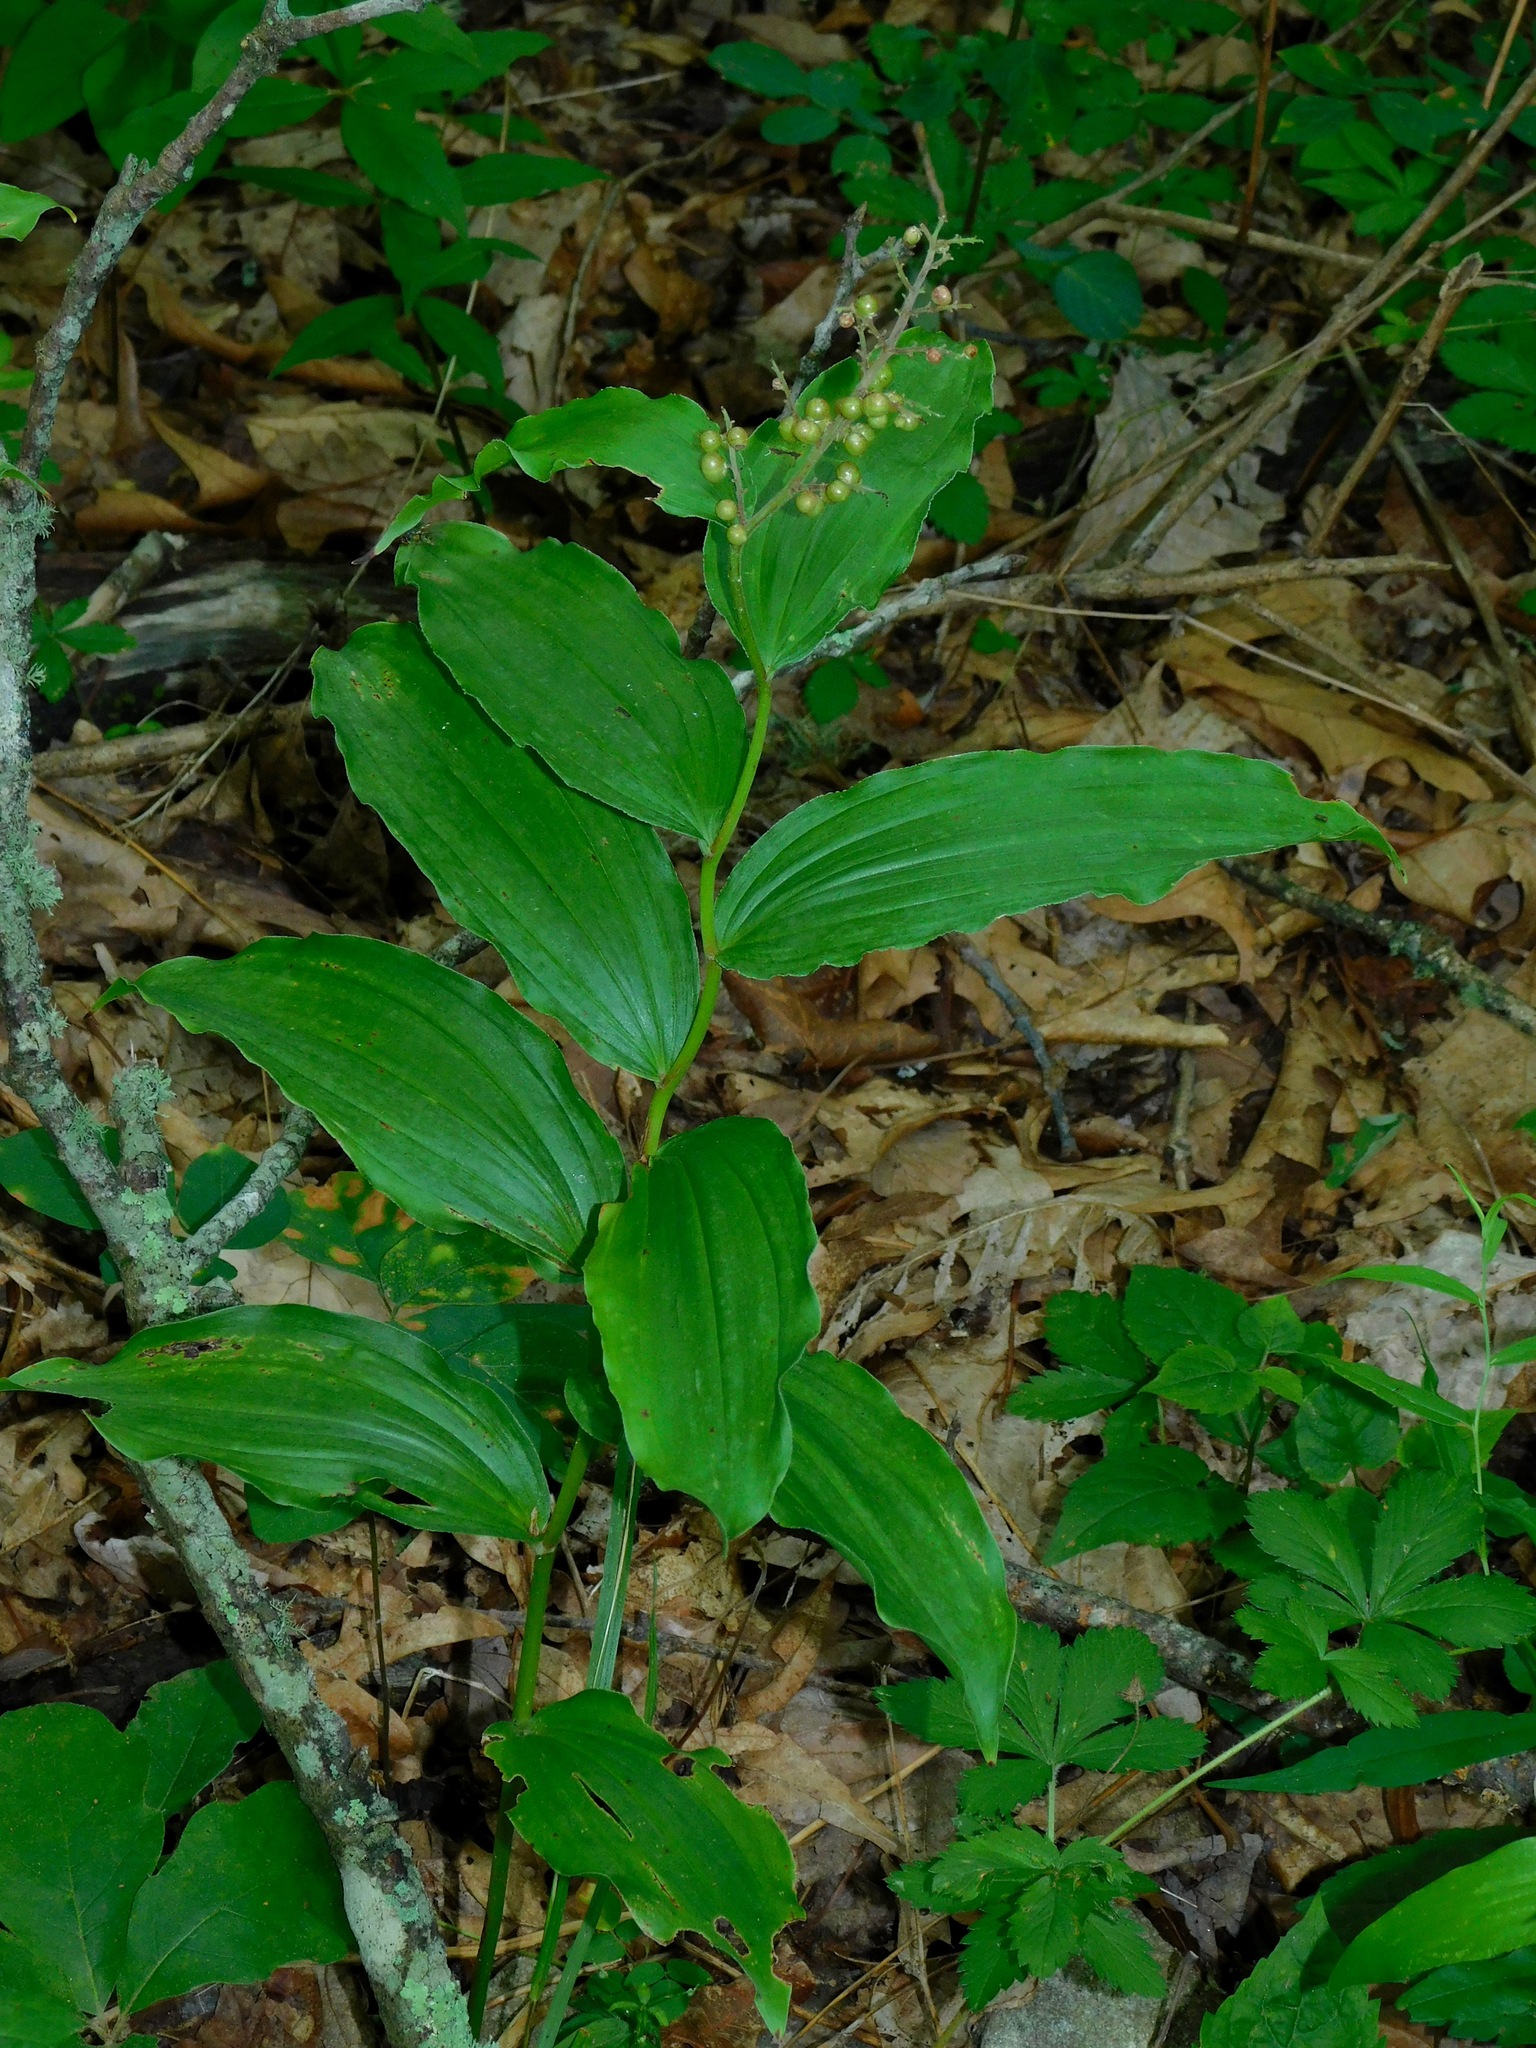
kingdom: Plantae
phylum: Tracheophyta
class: Liliopsida
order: Asparagales
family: Asparagaceae
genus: Maianthemum
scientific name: Maianthemum racemosum
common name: False spikenard
